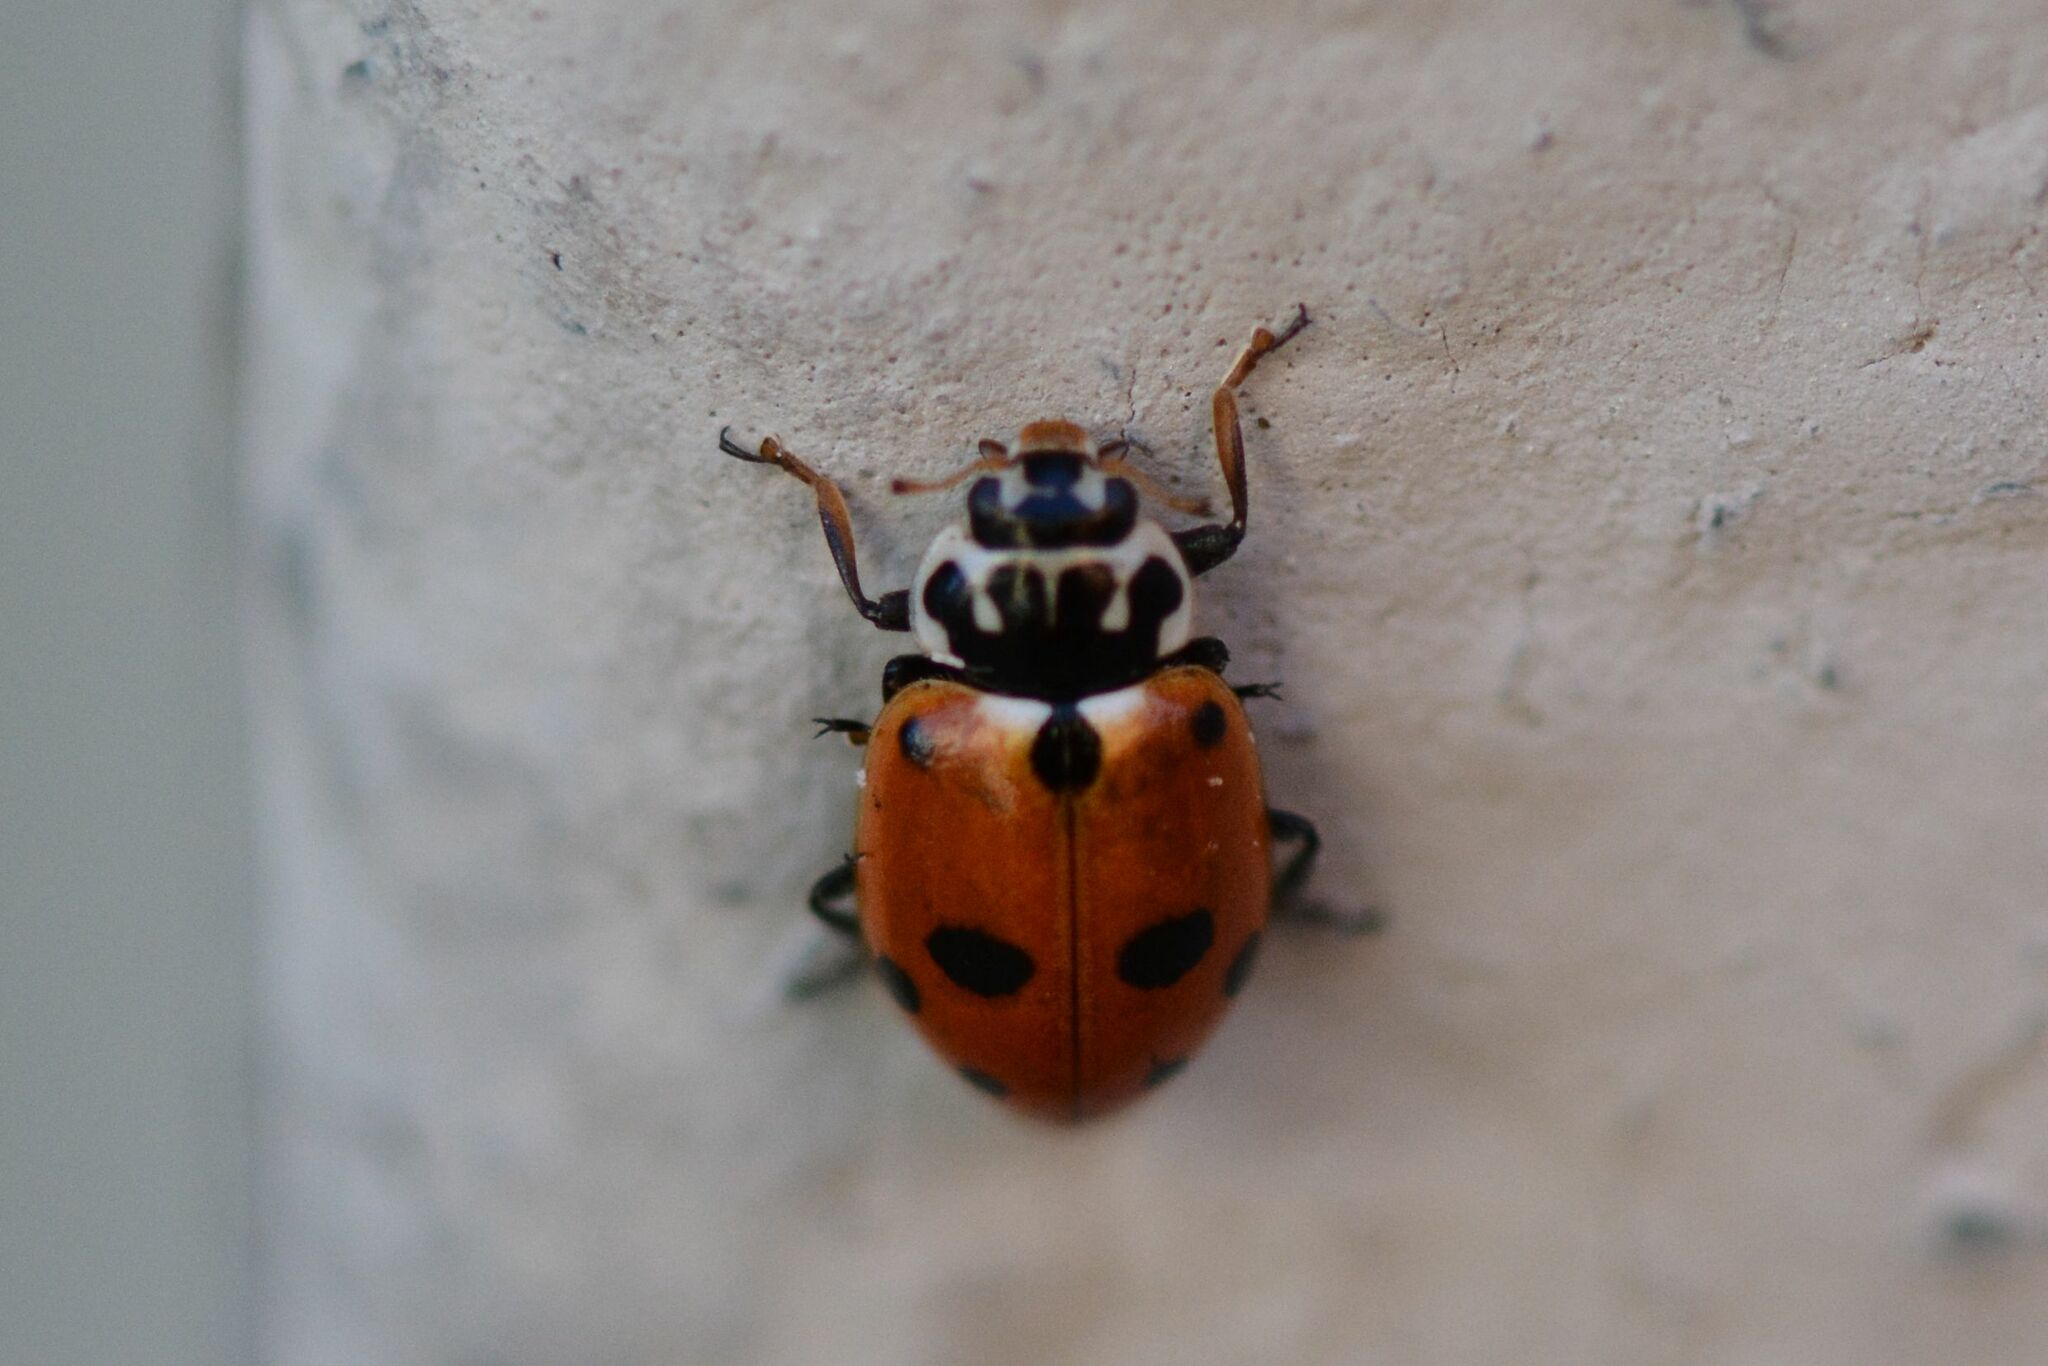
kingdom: Animalia
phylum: Arthropoda
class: Insecta
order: Coleoptera
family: Coccinellidae
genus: Hippodamia
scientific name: Hippodamia variegata
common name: Ladybird beetle
